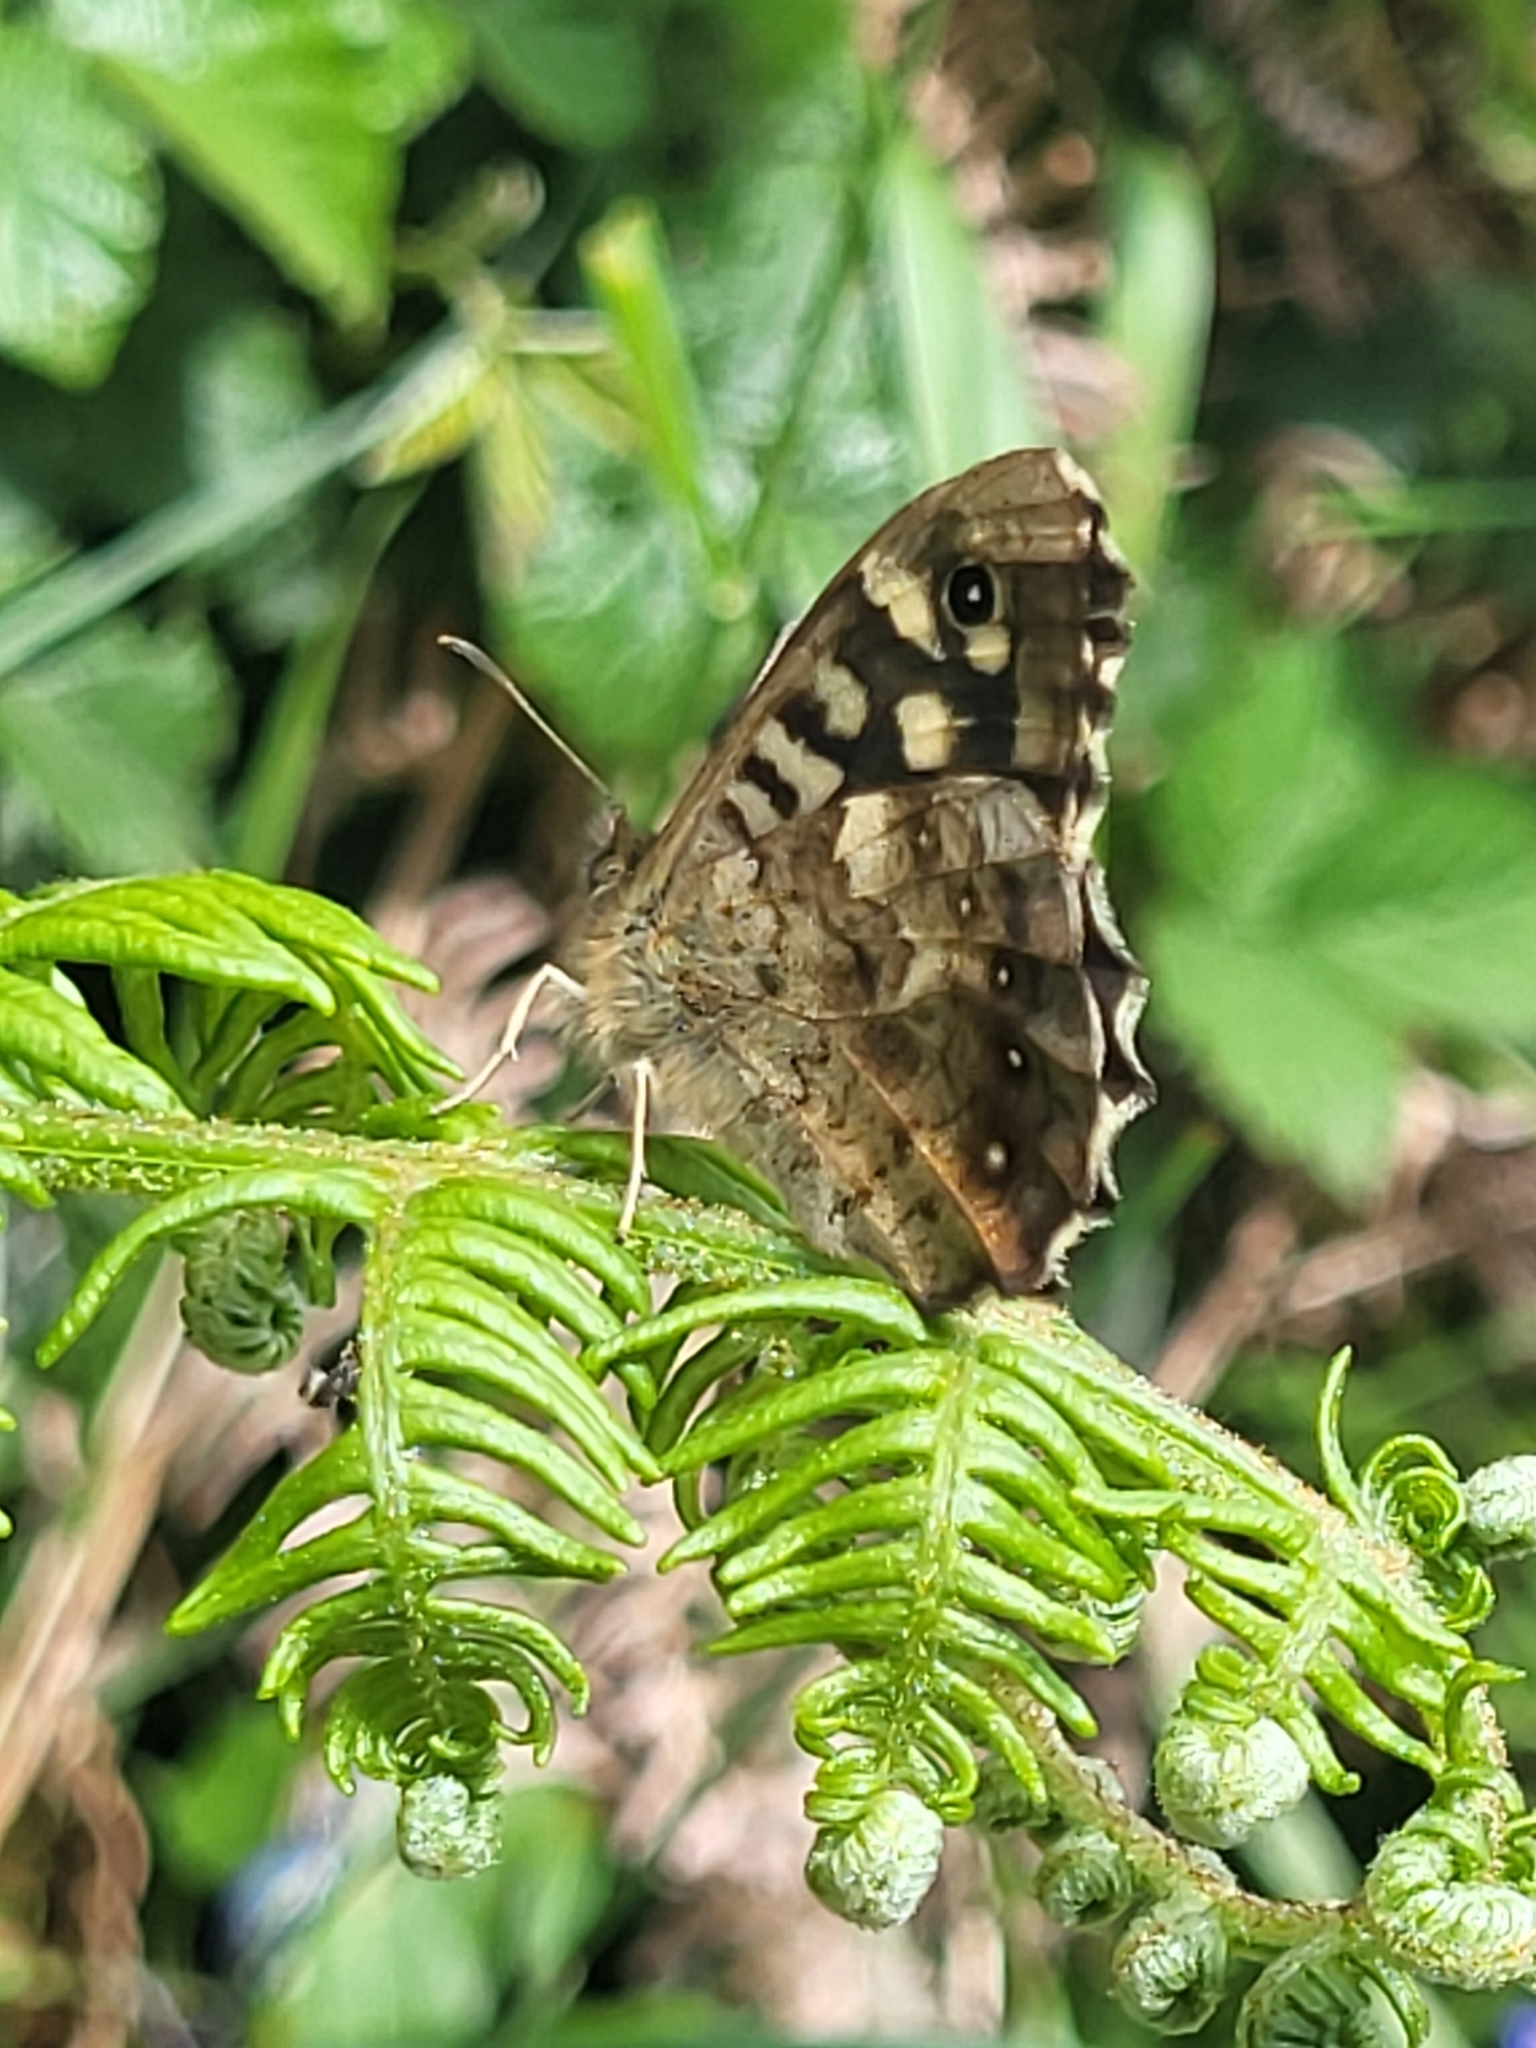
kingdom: Animalia
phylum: Arthropoda
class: Insecta
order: Lepidoptera
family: Nymphalidae
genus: Pararge
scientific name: Pararge aegeria
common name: Speckled wood
